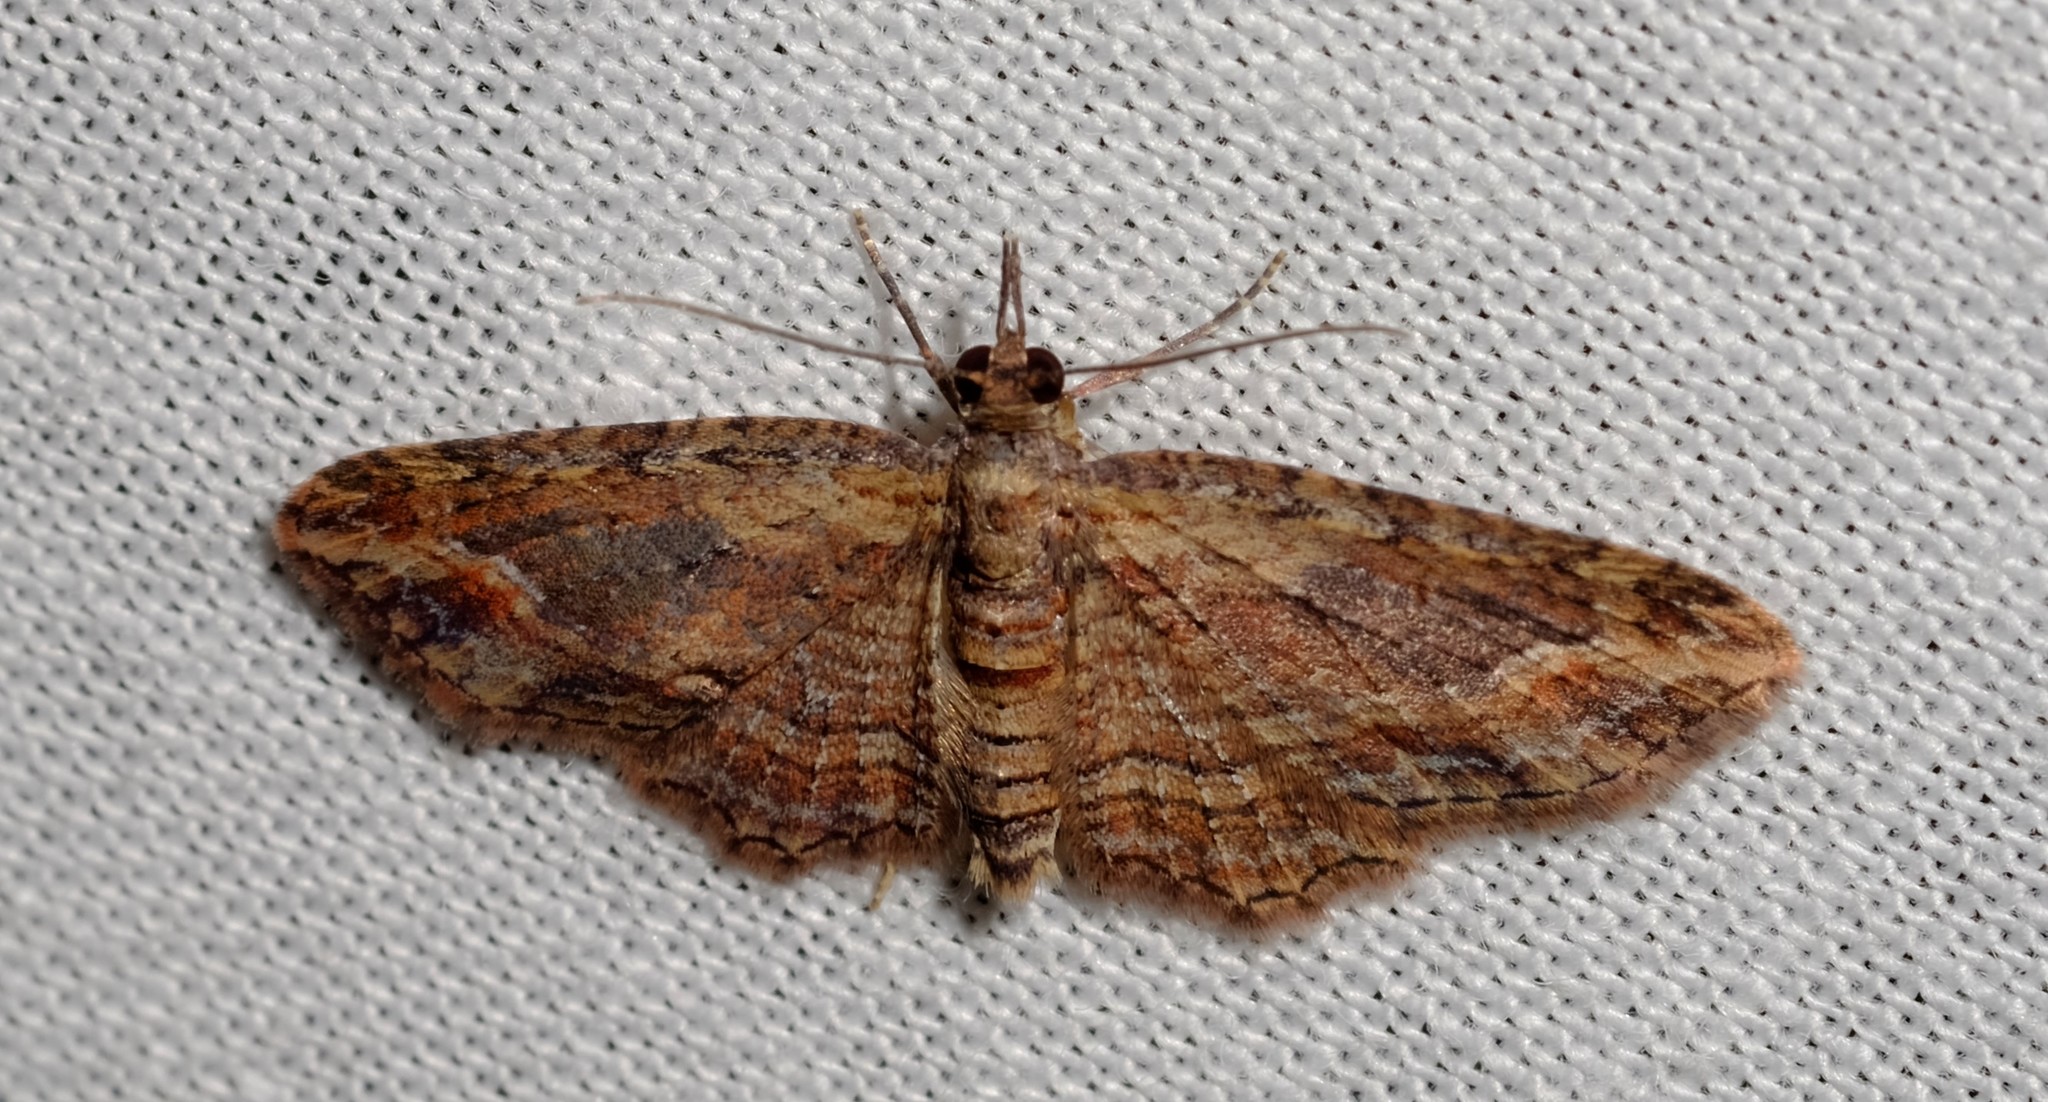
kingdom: Animalia
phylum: Arthropoda
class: Insecta
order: Lepidoptera
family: Geometridae
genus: Chloroclystis
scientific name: Chloroclystis filata
